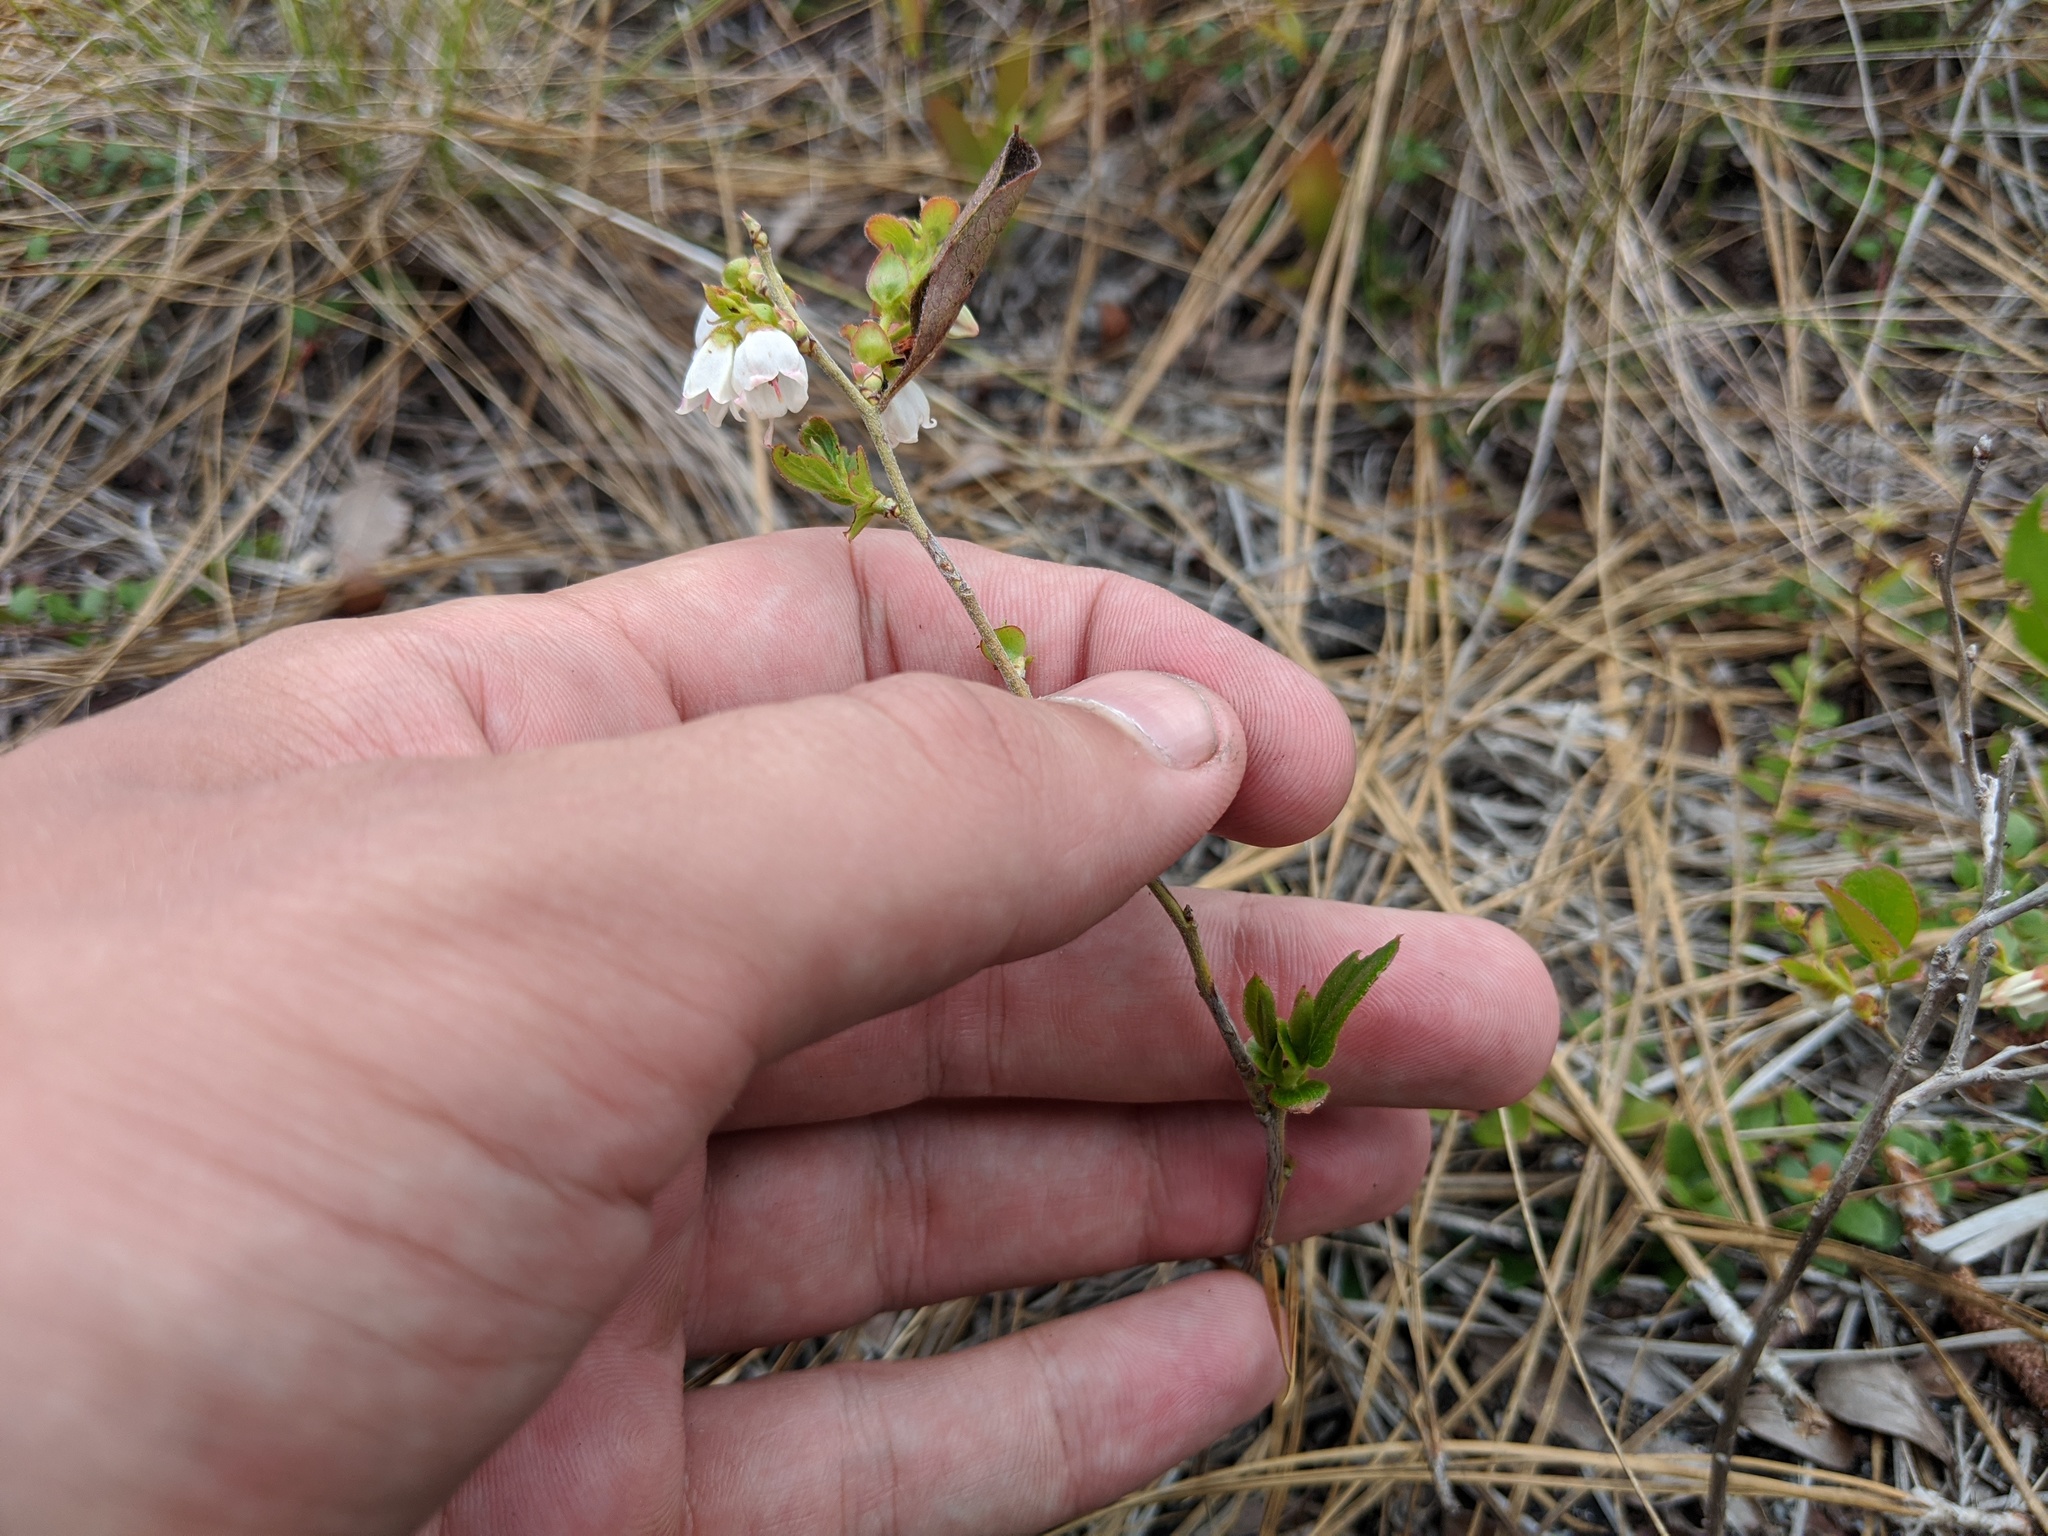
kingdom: Plantae
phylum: Tracheophyta
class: Magnoliopsida
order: Ericales
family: Ericaceae
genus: Gaylussacia
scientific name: Gaylussacia dumosa
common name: Dwarf huckleberry
